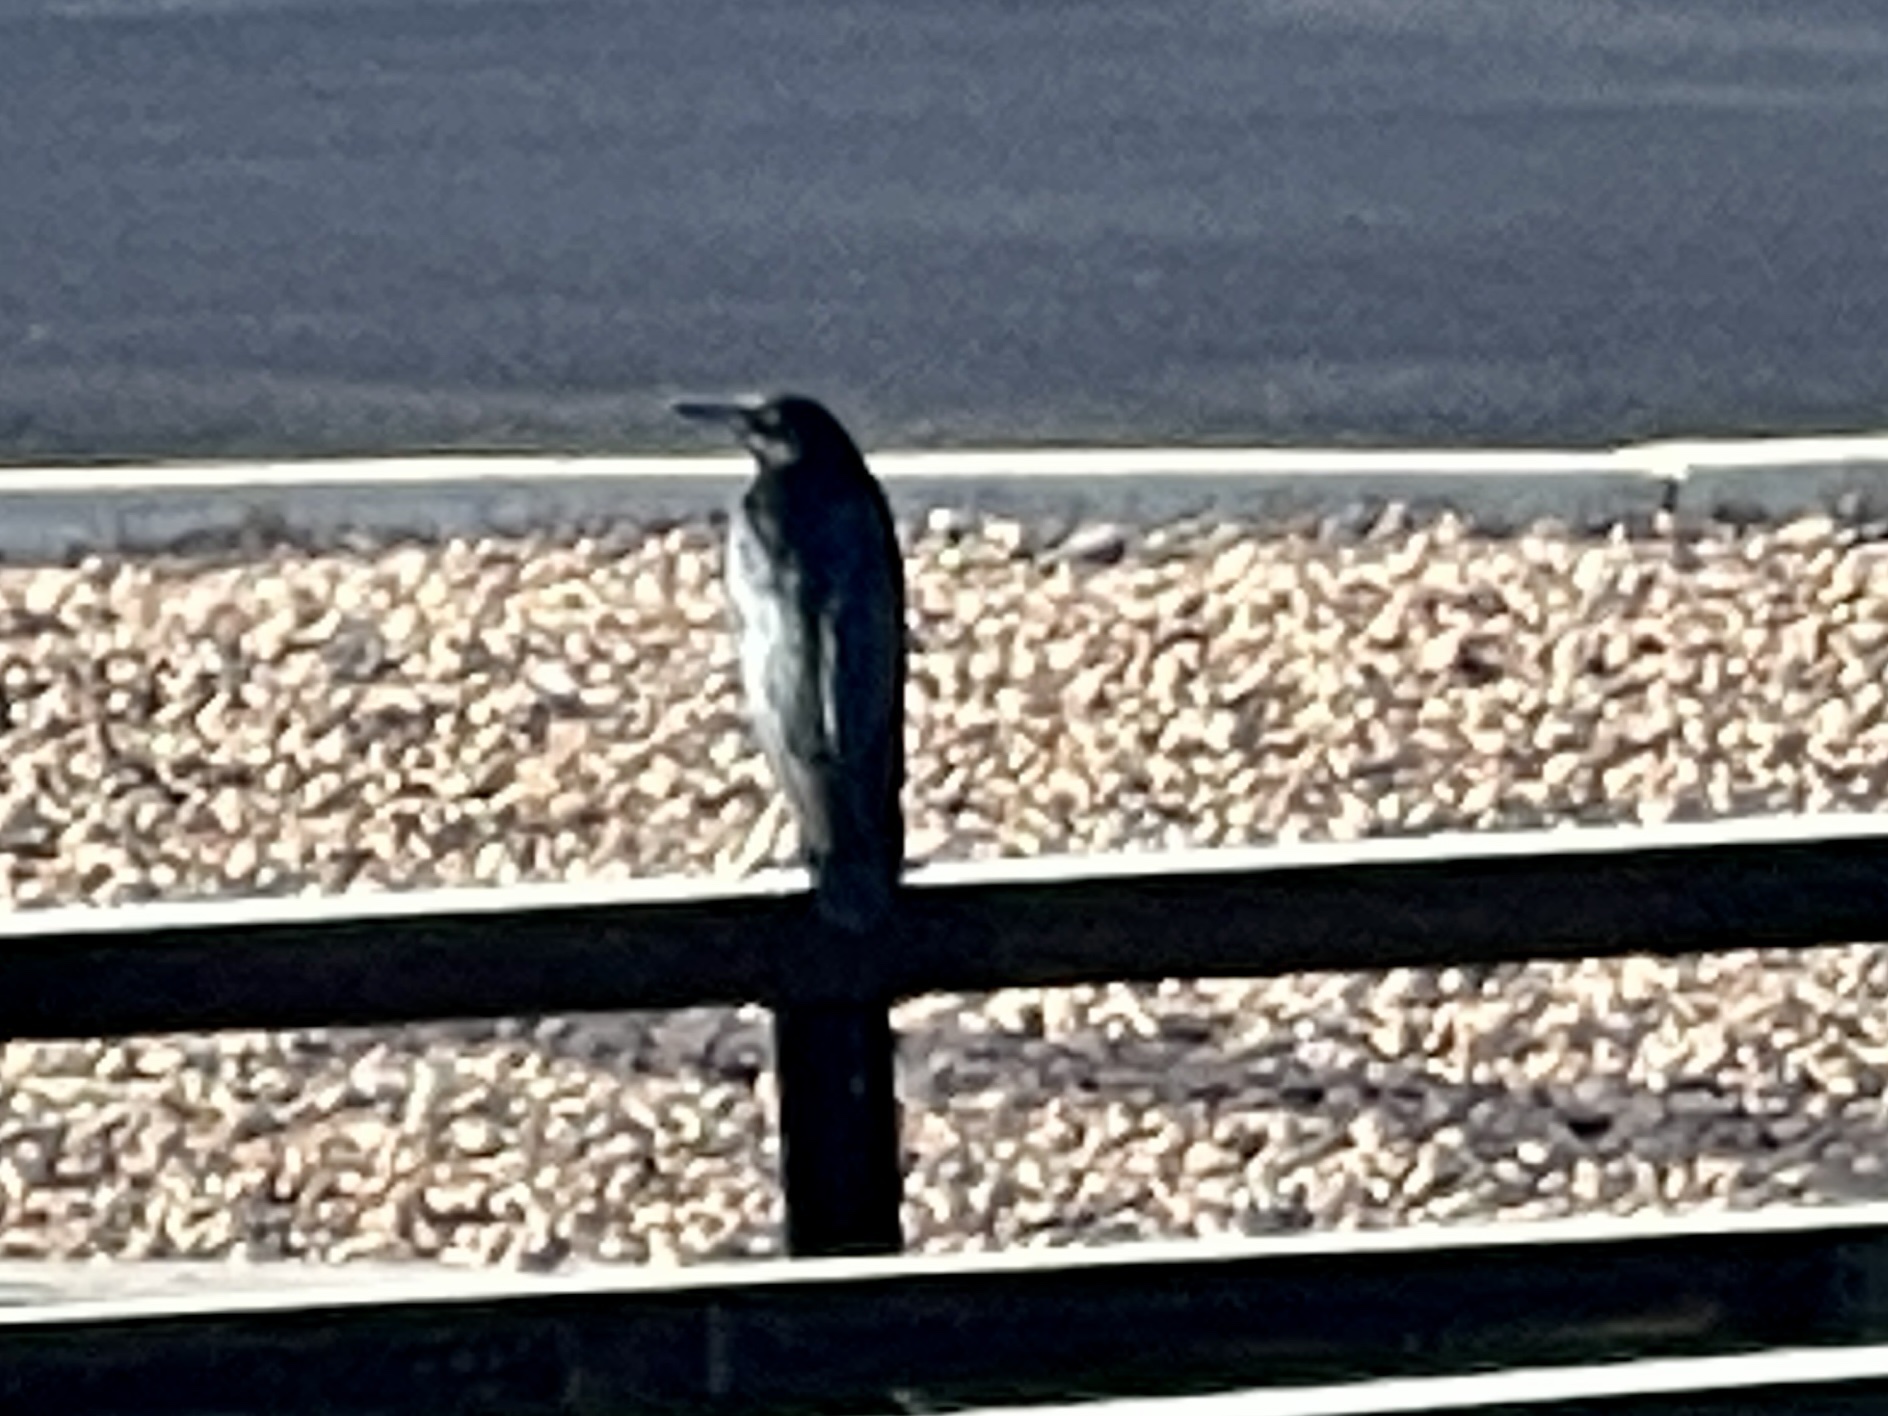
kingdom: Animalia
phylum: Chordata
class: Aves
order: Passeriformes
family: Icteridae
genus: Quiscalus
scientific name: Quiscalus mexicanus
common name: Great-tailed grackle
